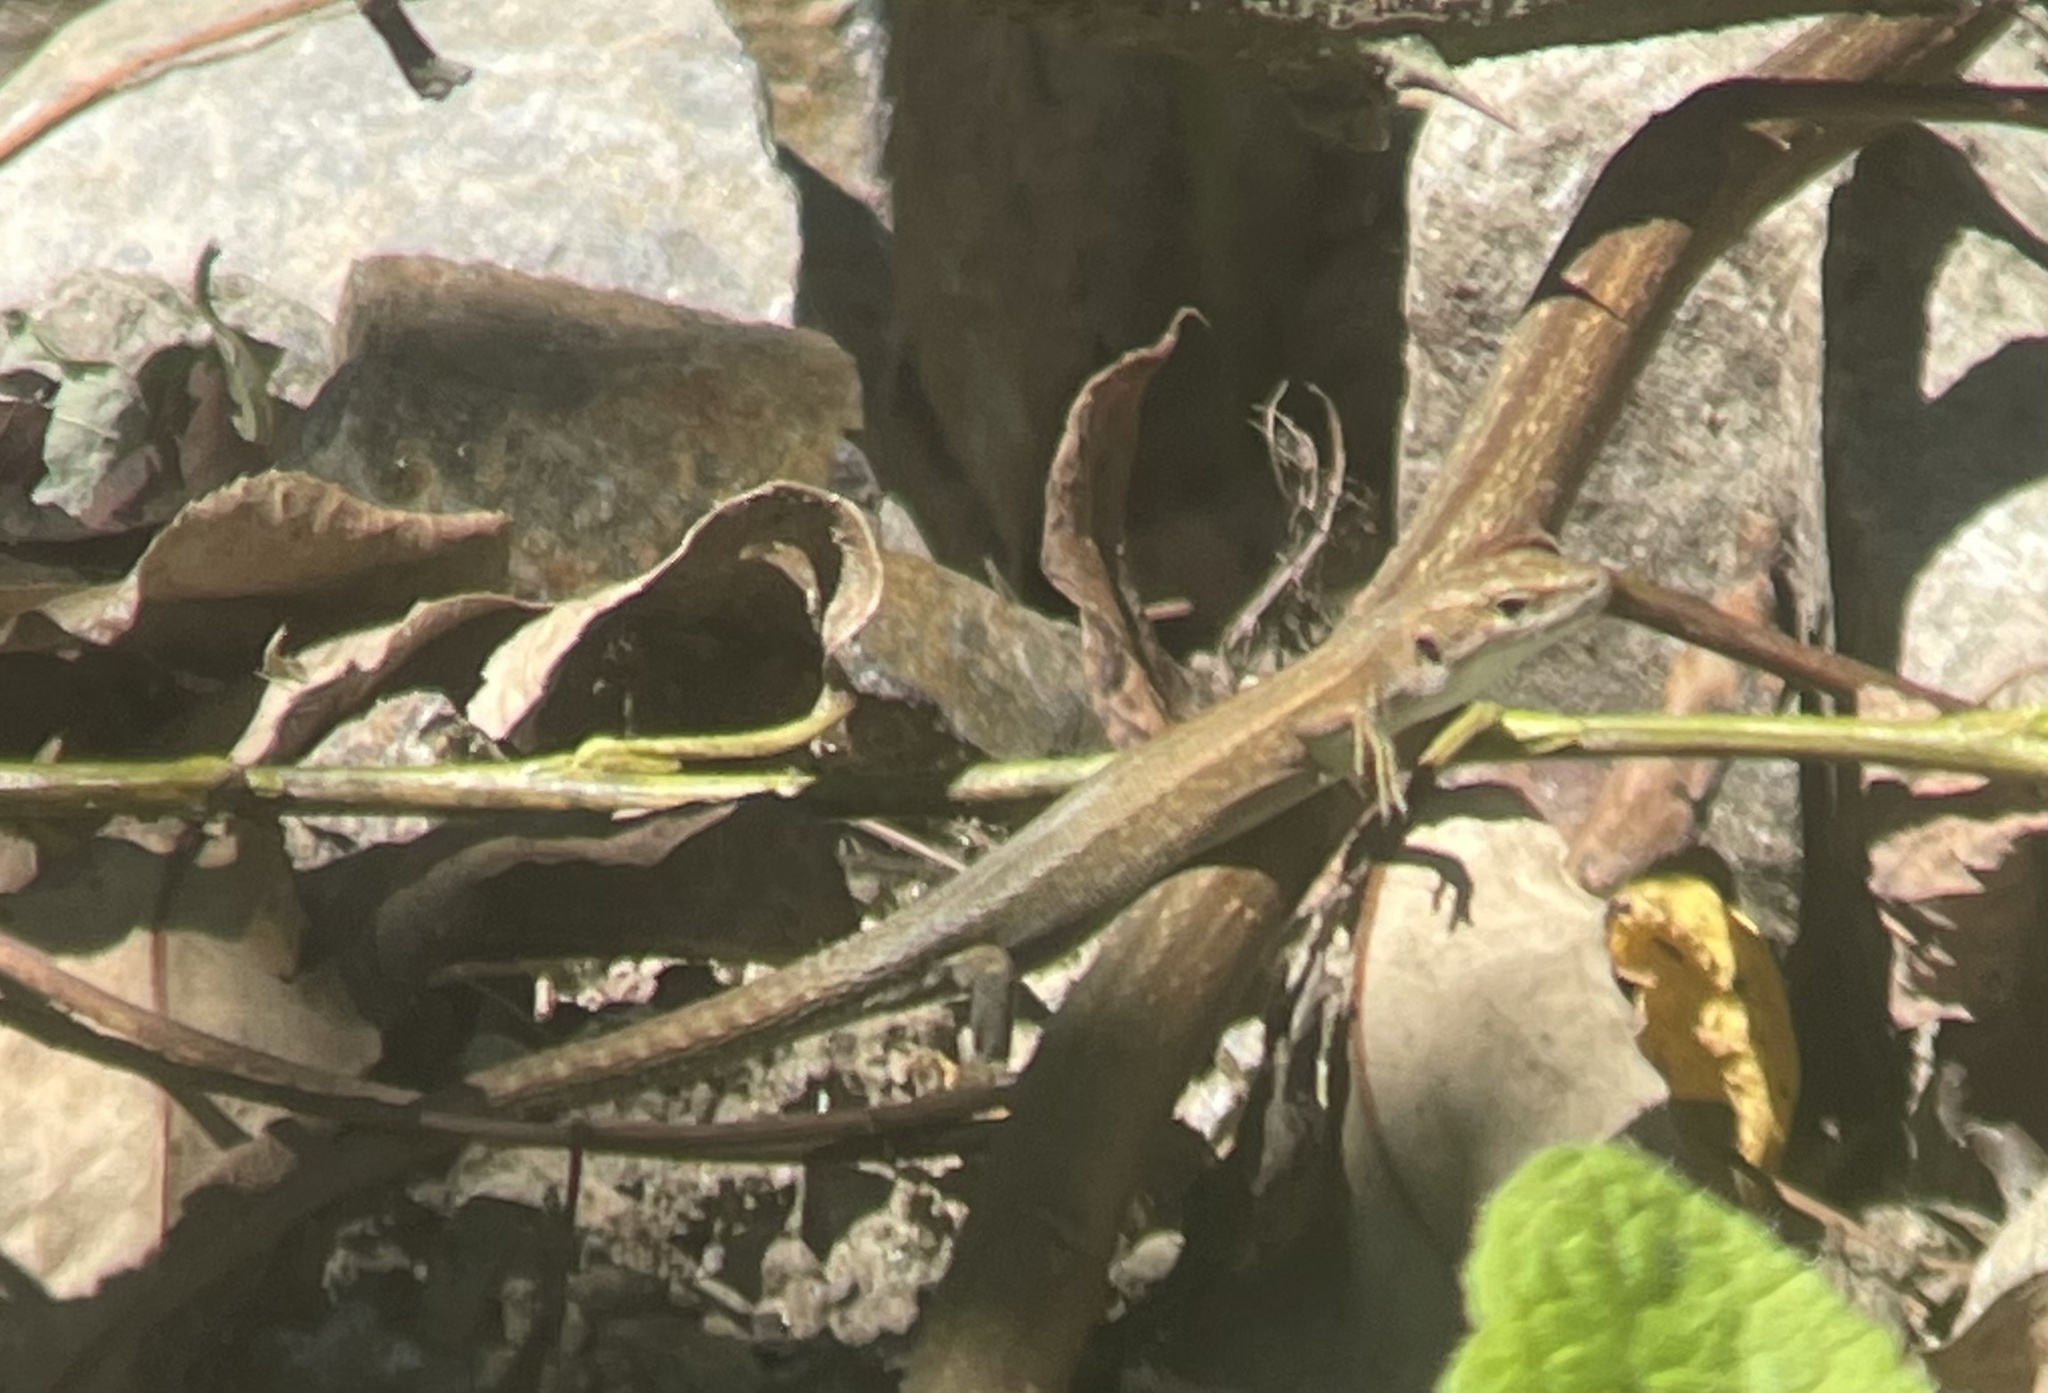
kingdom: Animalia
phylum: Chordata
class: Squamata
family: Lacertidae
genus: Darevskia
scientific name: Darevskia praticola
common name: Meadow lizard
